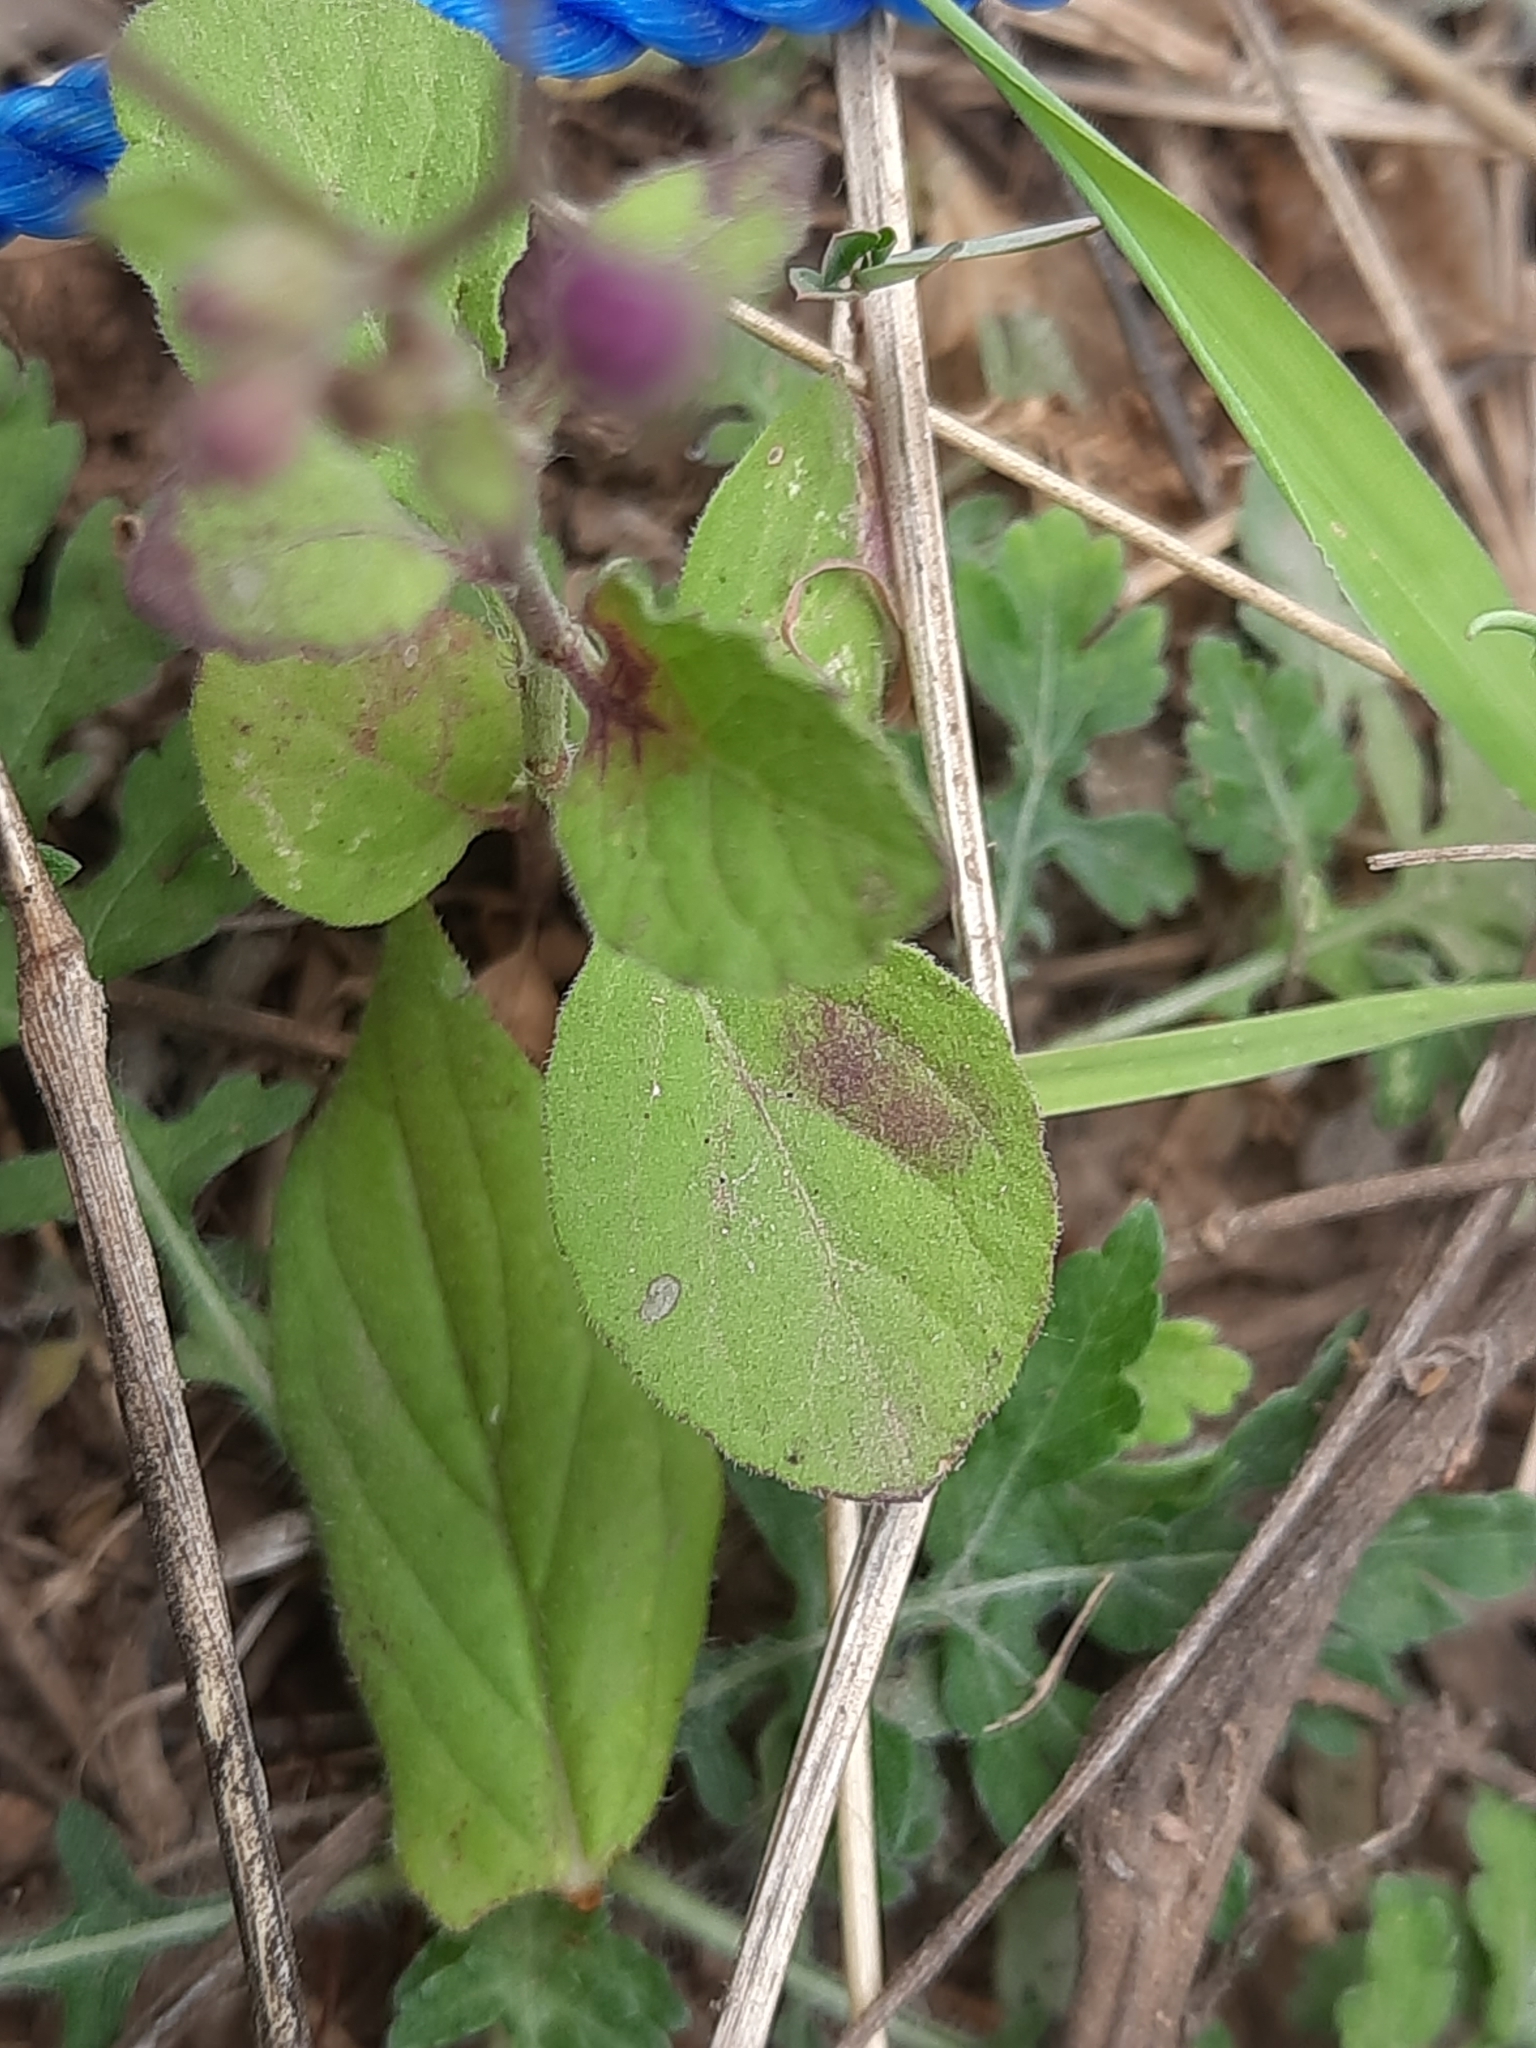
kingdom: Plantae
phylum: Tracheophyta
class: Magnoliopsida
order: Asterales
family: Asteraceae
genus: Cyanthillium
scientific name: Cyanthillium cinereum
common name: Little ironweed
